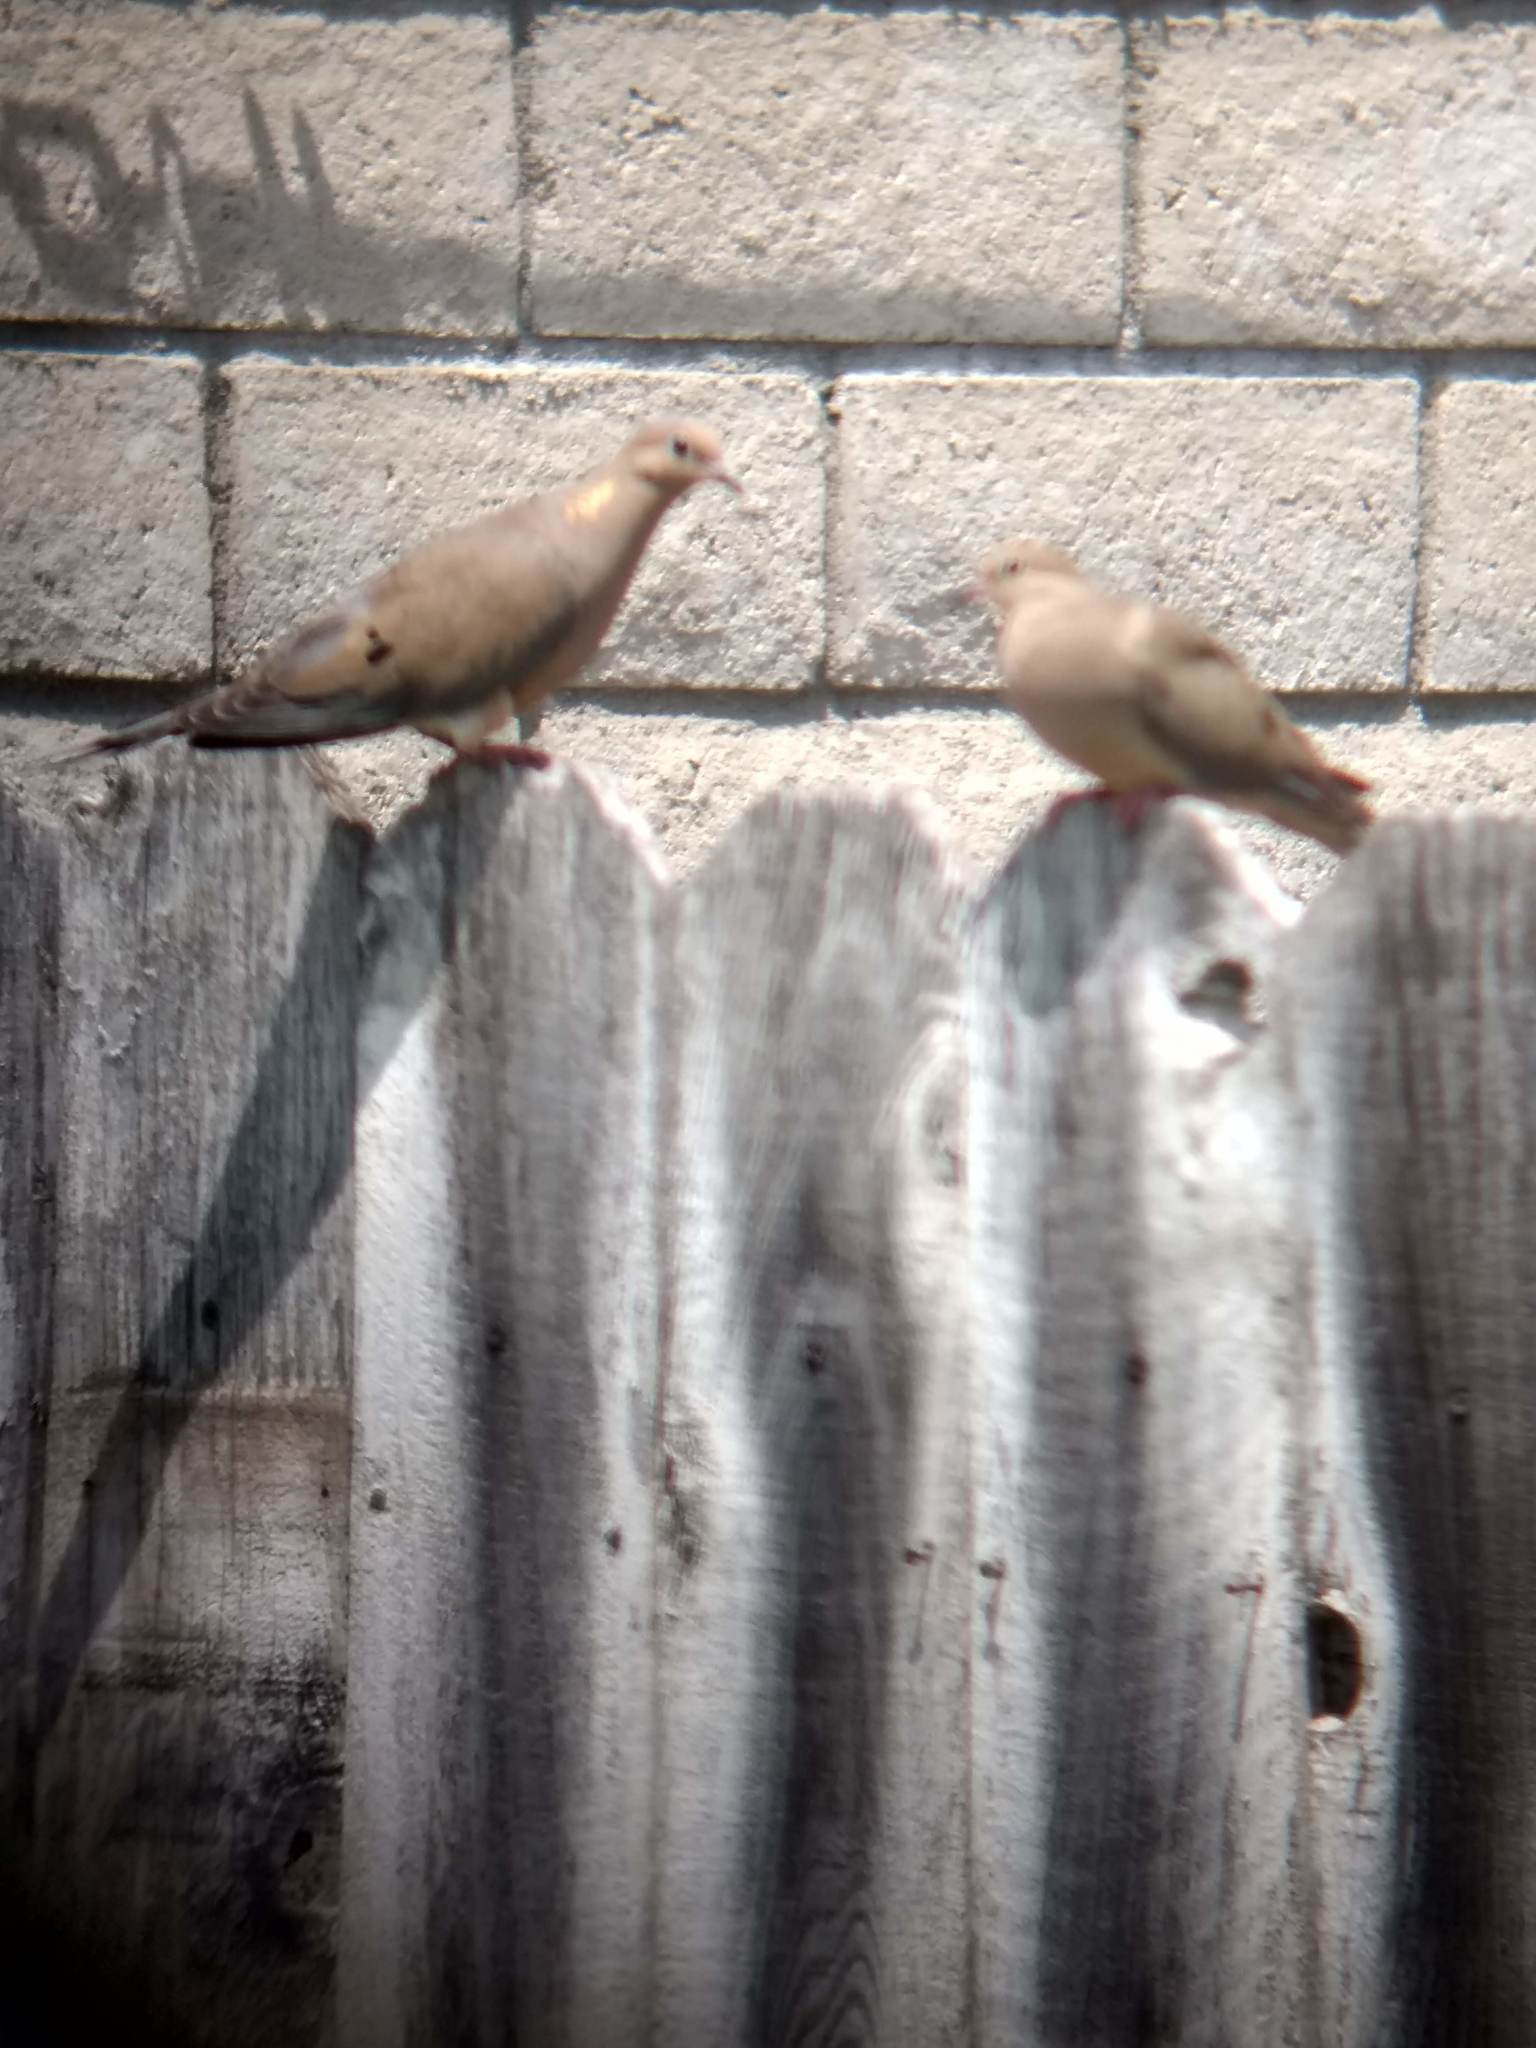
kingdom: Animalia
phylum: Chordata
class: Aves
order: Columbiformes
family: Columbidae
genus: Zenaida
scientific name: Zenaida macroura
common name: Mourning dove
